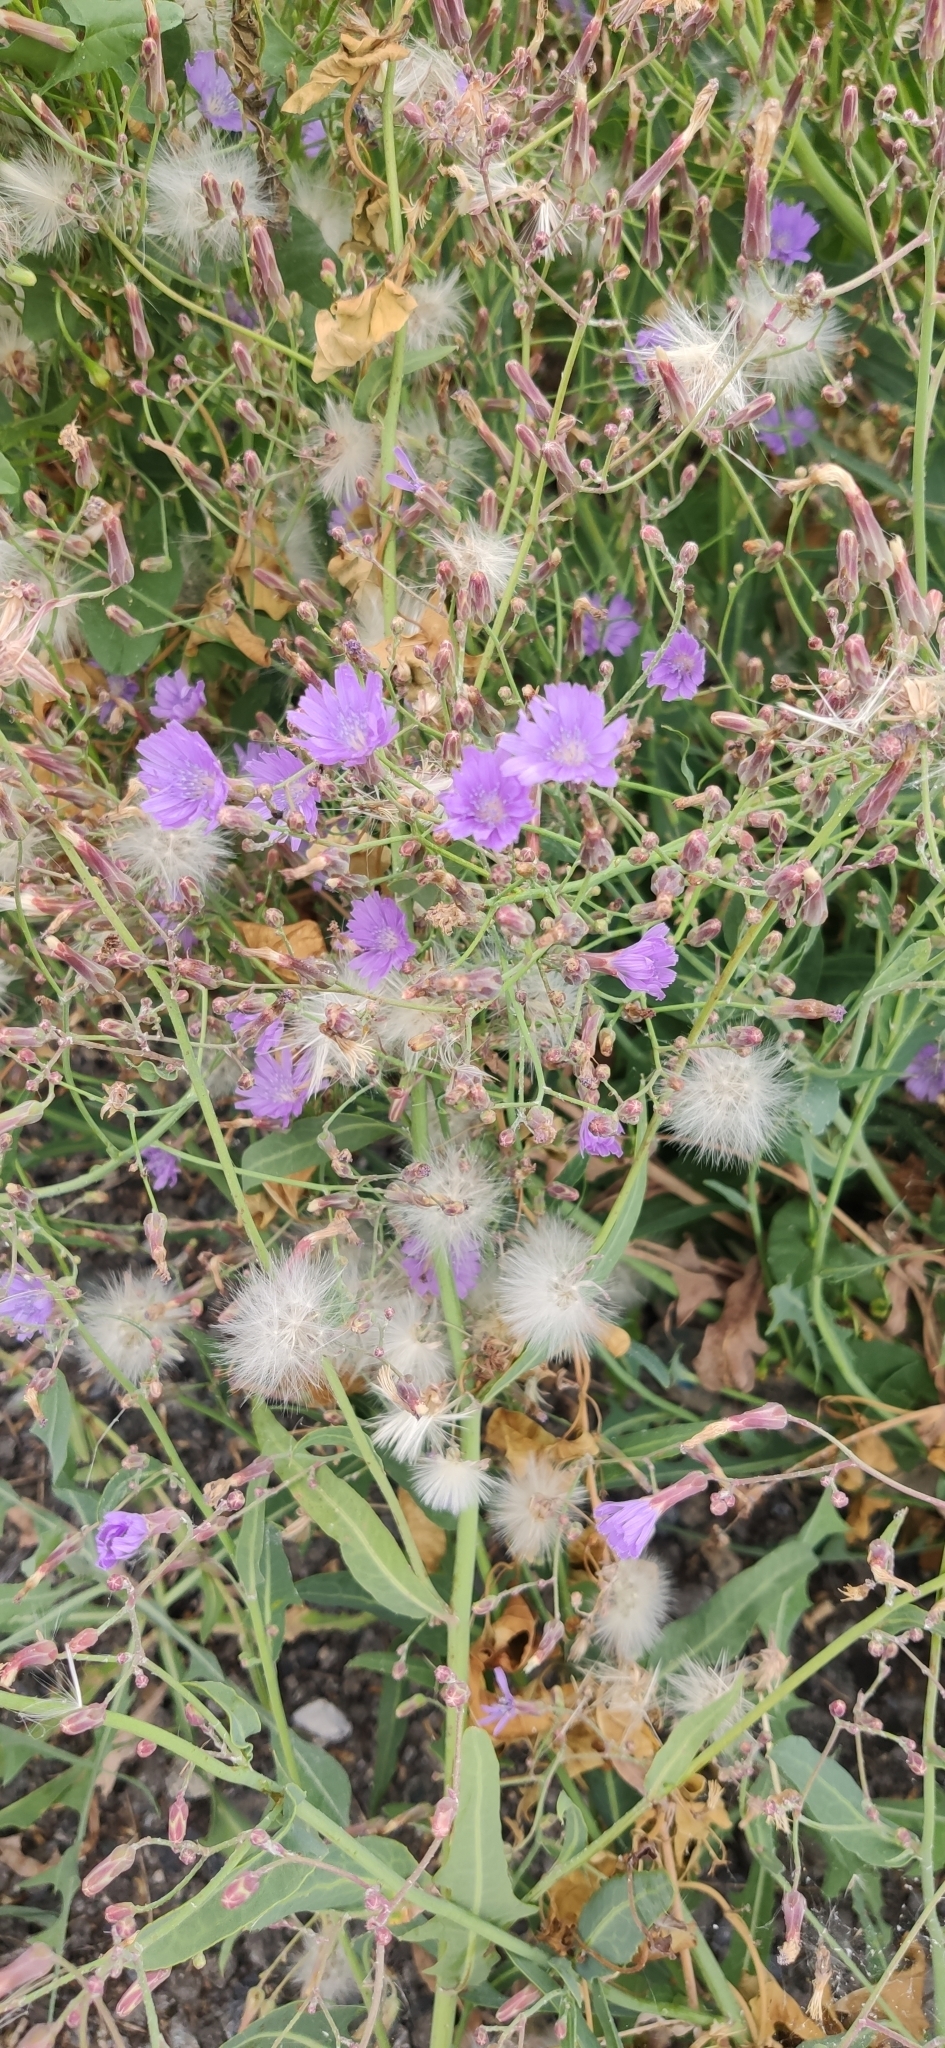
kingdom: Plantae
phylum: Tracheophyta
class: Magnoliopsida
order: Asterales
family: Asteraceae
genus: Lactuca
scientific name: Lactuca tatarica
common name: Blue lettuce
